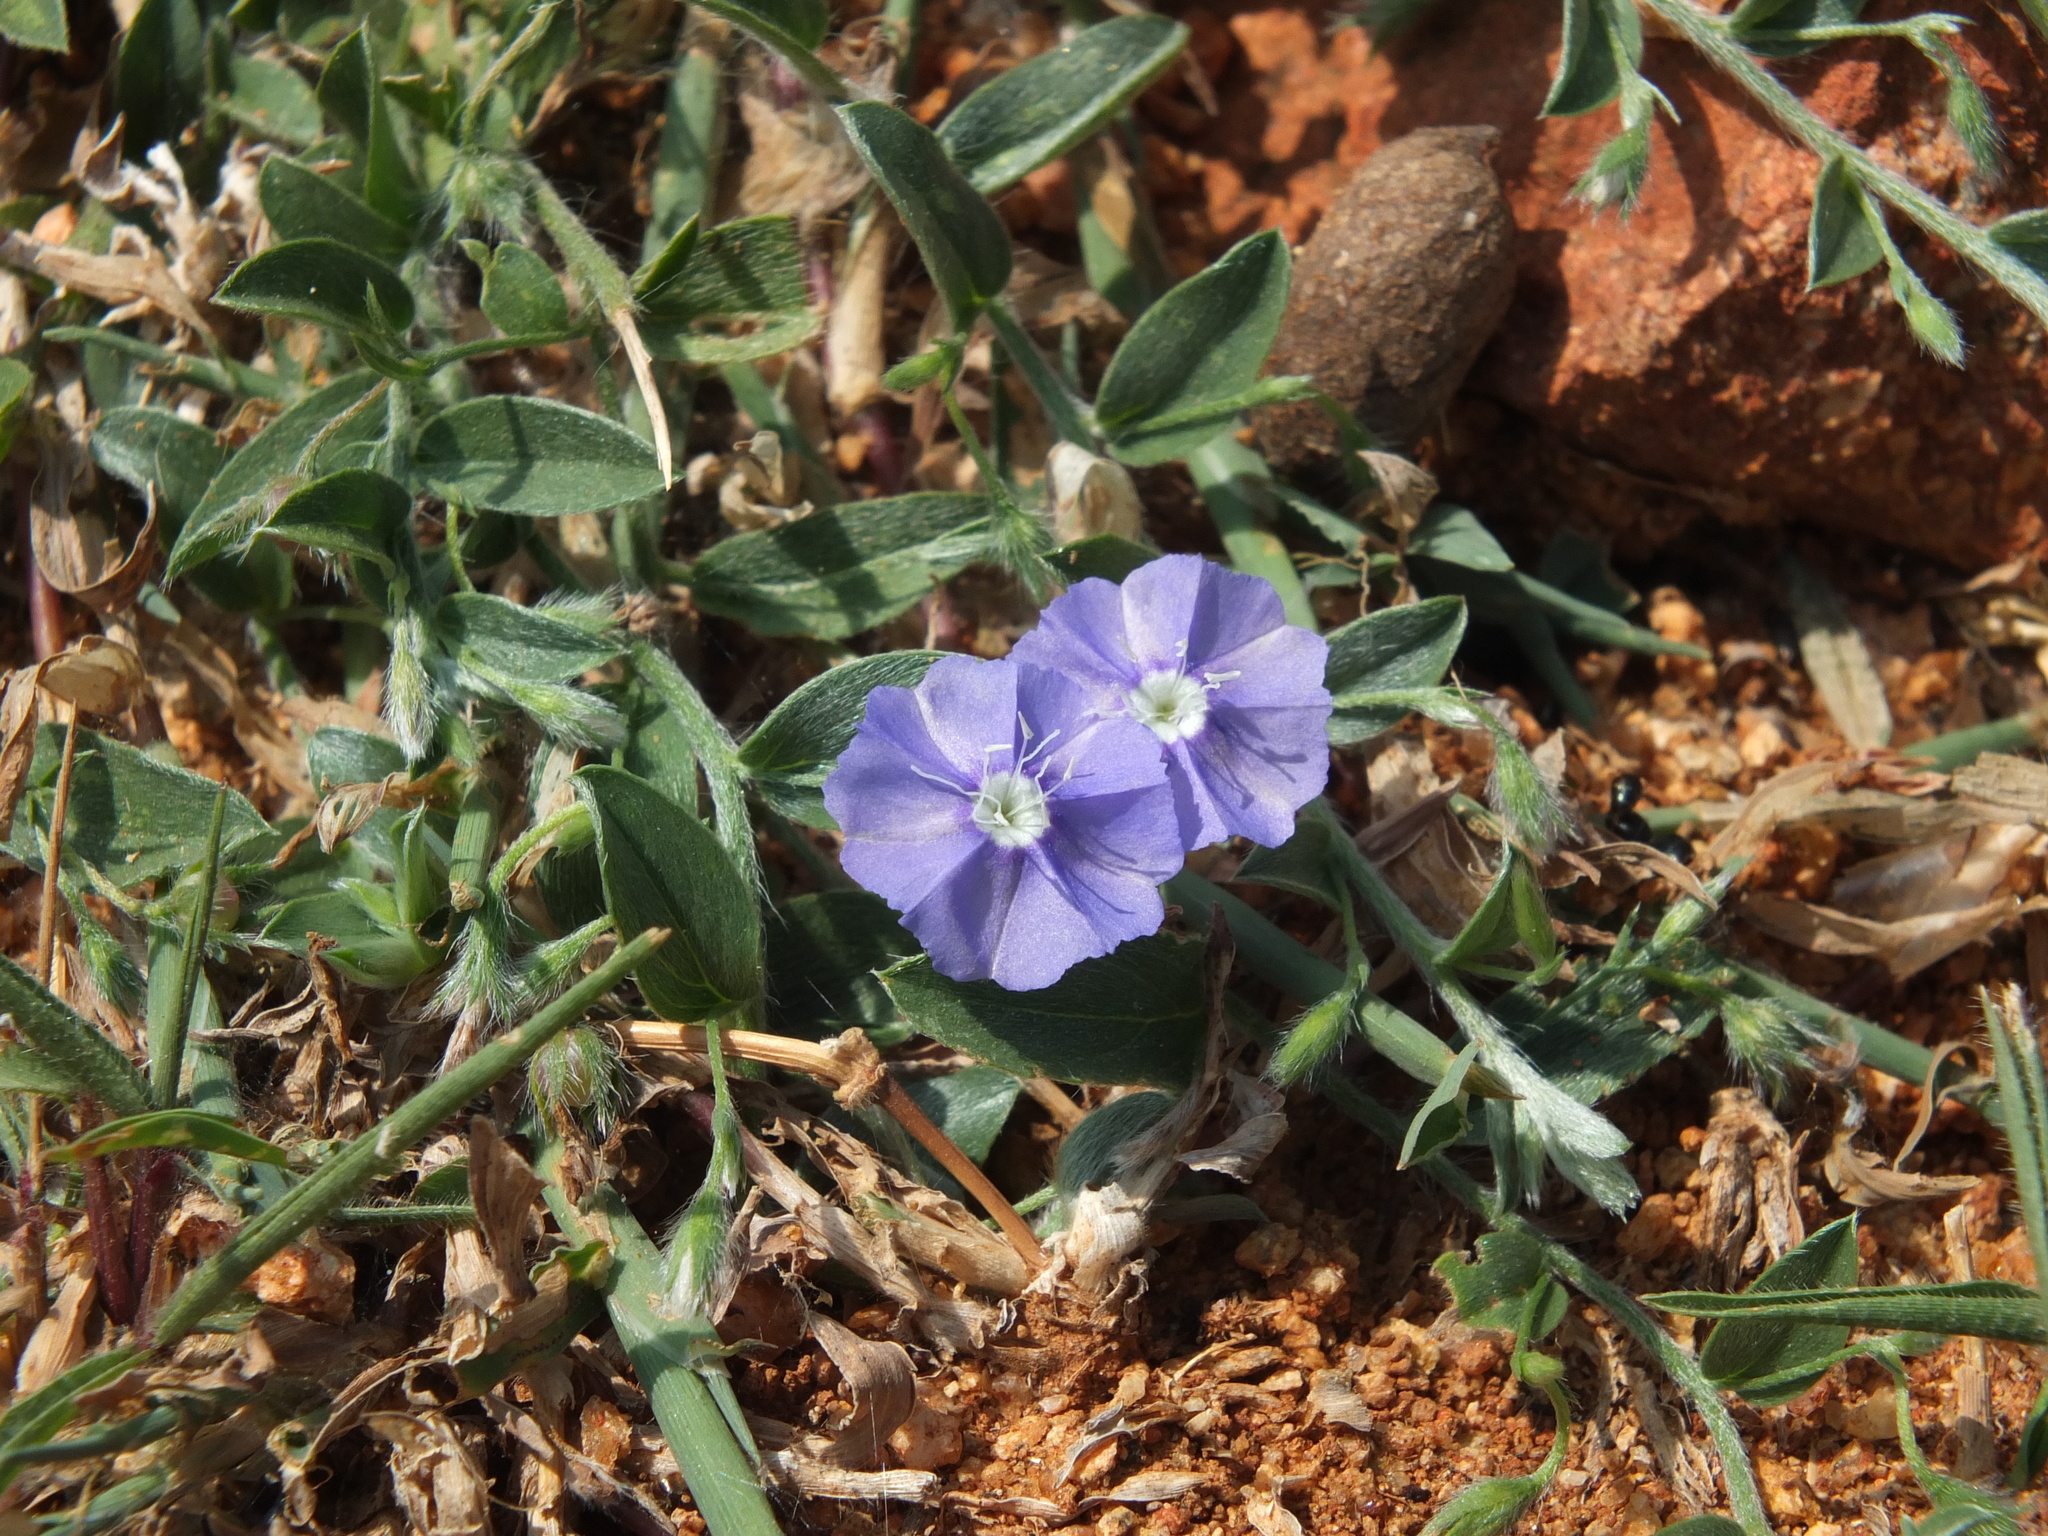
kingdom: Plantae
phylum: Tracheophyta
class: Magnoliopsida
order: Solanales
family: Convolvulaceae
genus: Evolvulus
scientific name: Evolvulus alsinoides
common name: Slender dwarf morning-glory
